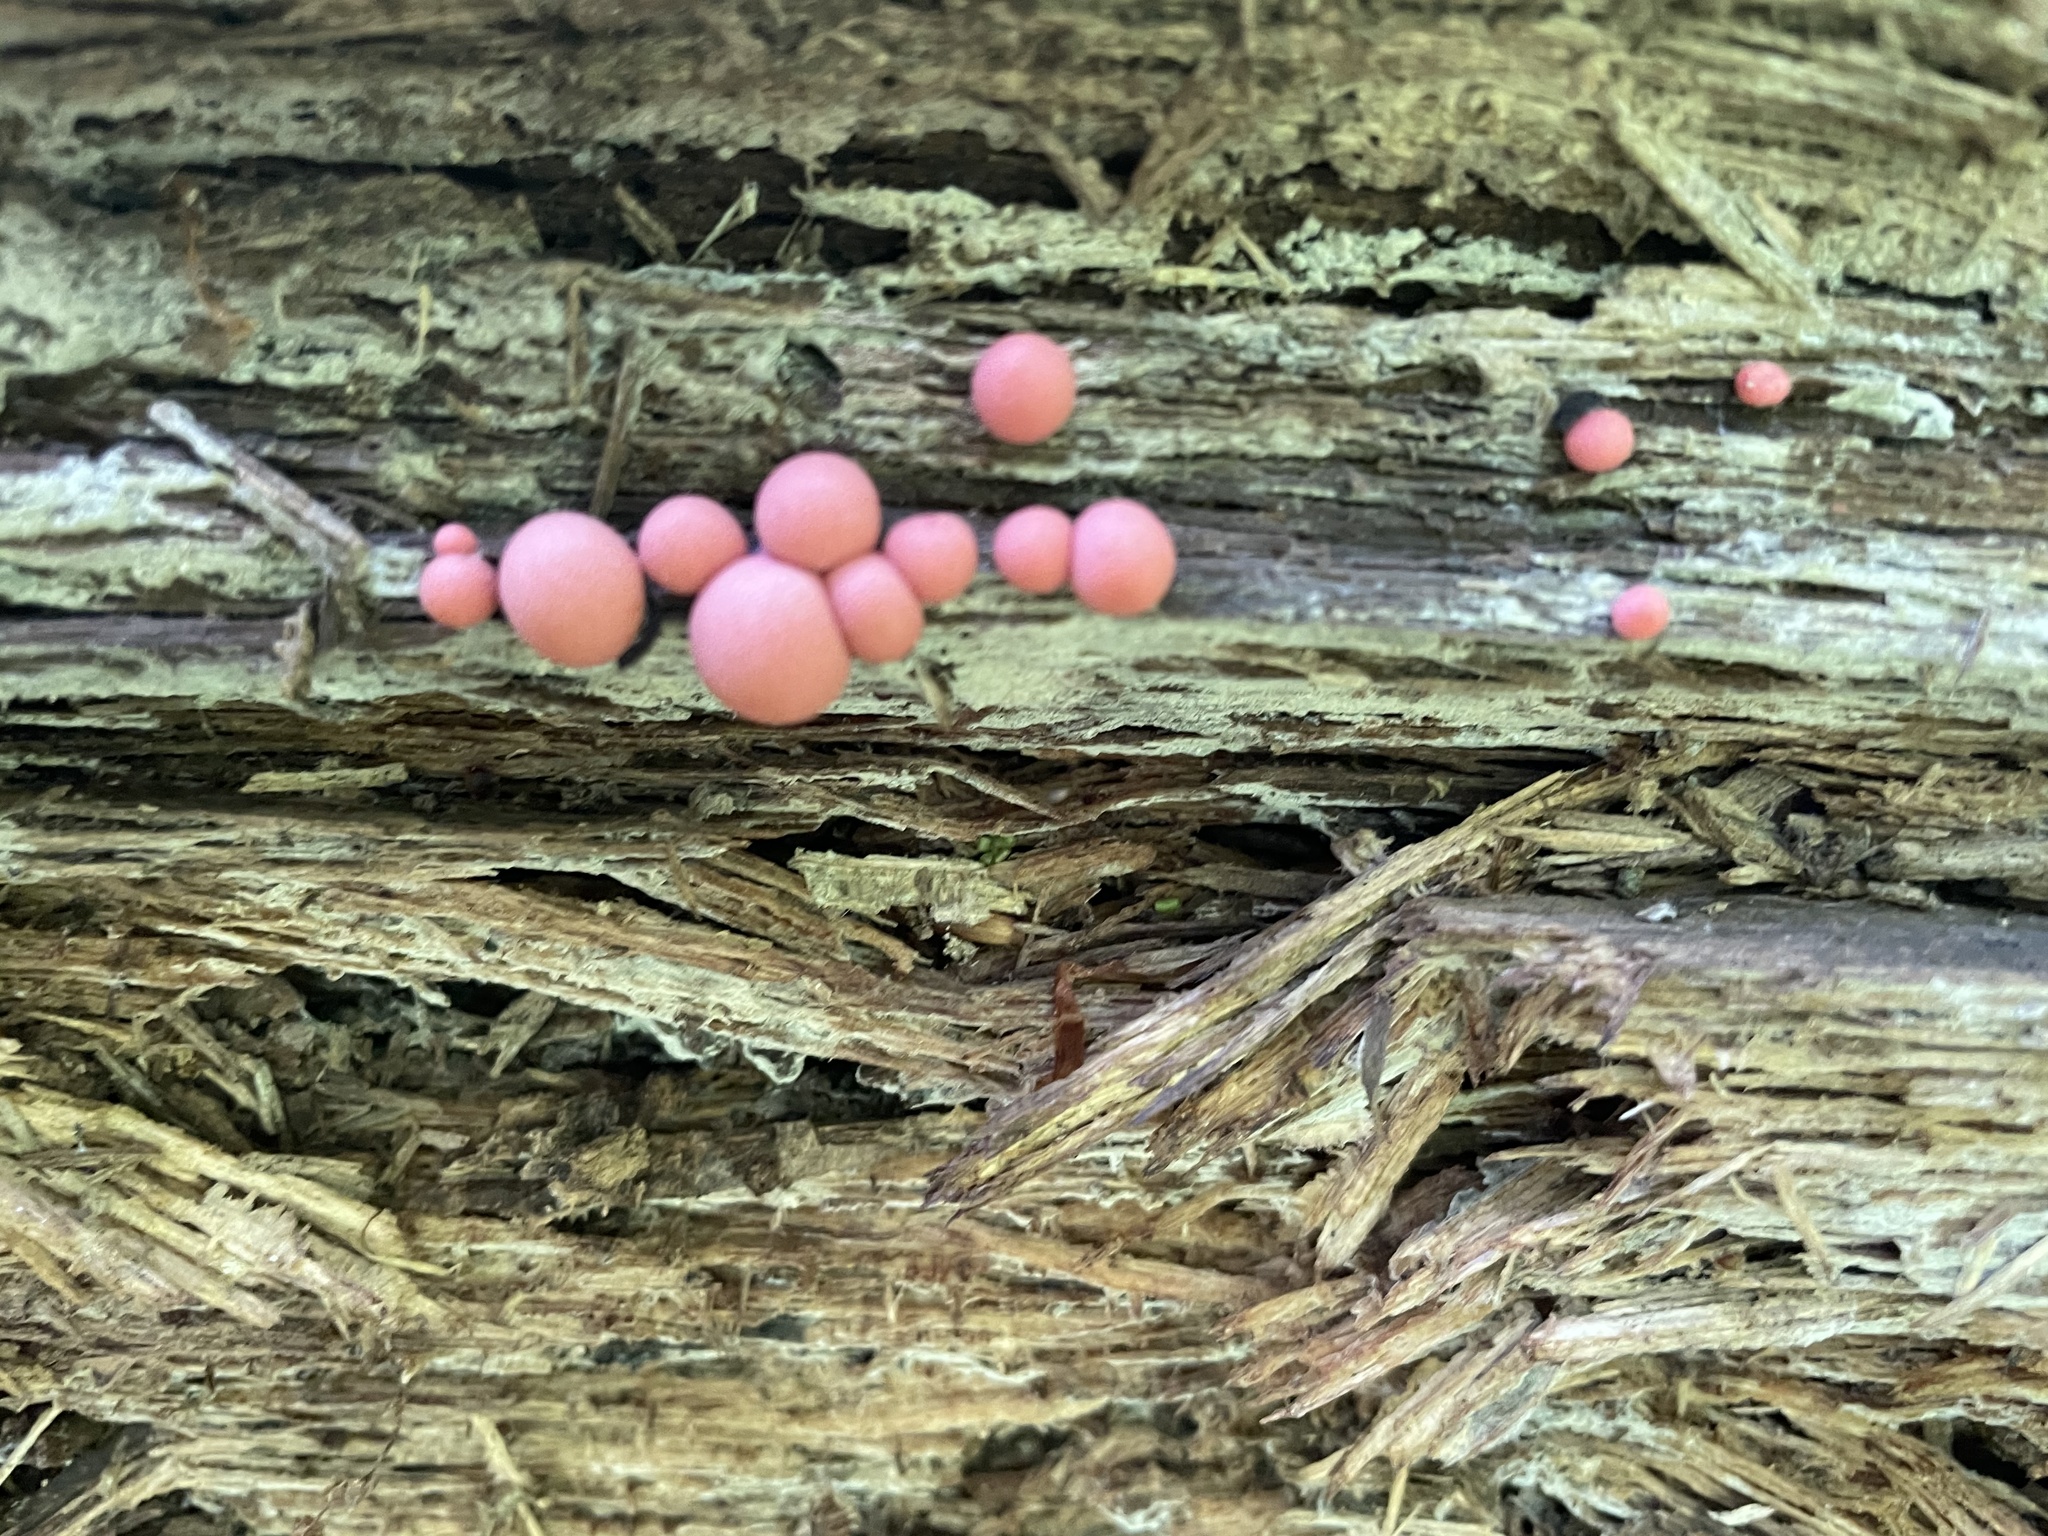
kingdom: Protozoa
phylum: Mycetozoa
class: Myxomycetes
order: Cribrariales
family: Tubiferaceae
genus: Lycogala
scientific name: Lycogala epidendrum
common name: Wolf's milk
